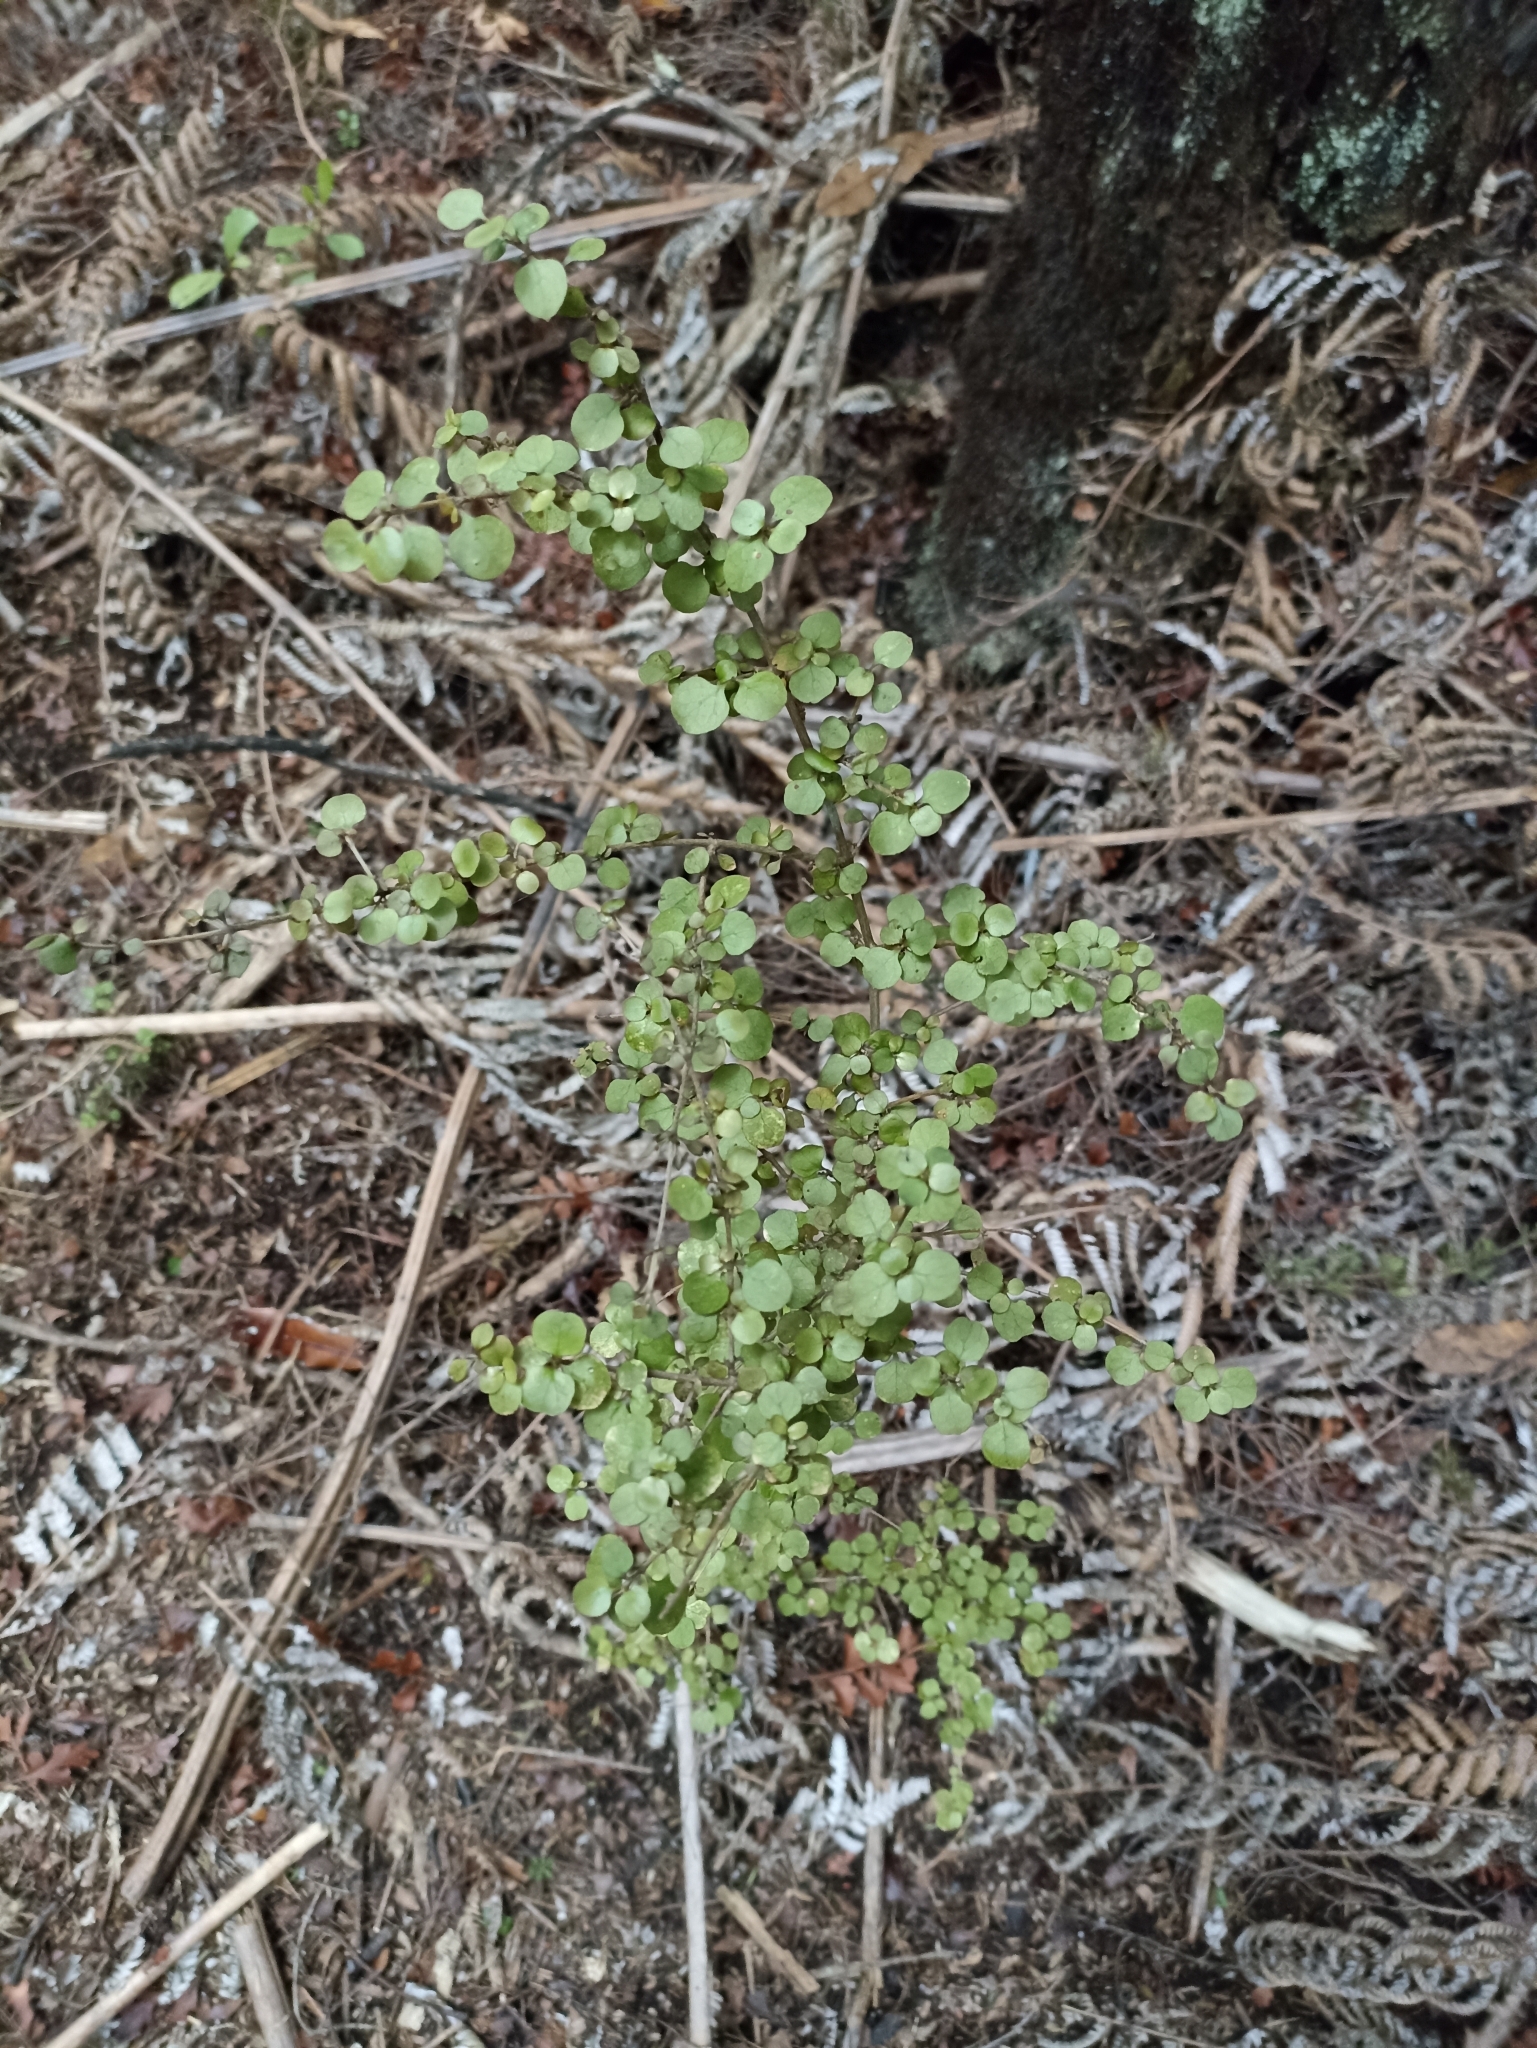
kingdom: Plantae
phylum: Tracheophyta
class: Magnoliopsida
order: Gentianales
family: Rubiaceae
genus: Coprosma
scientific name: Coprosma rhamnoides
